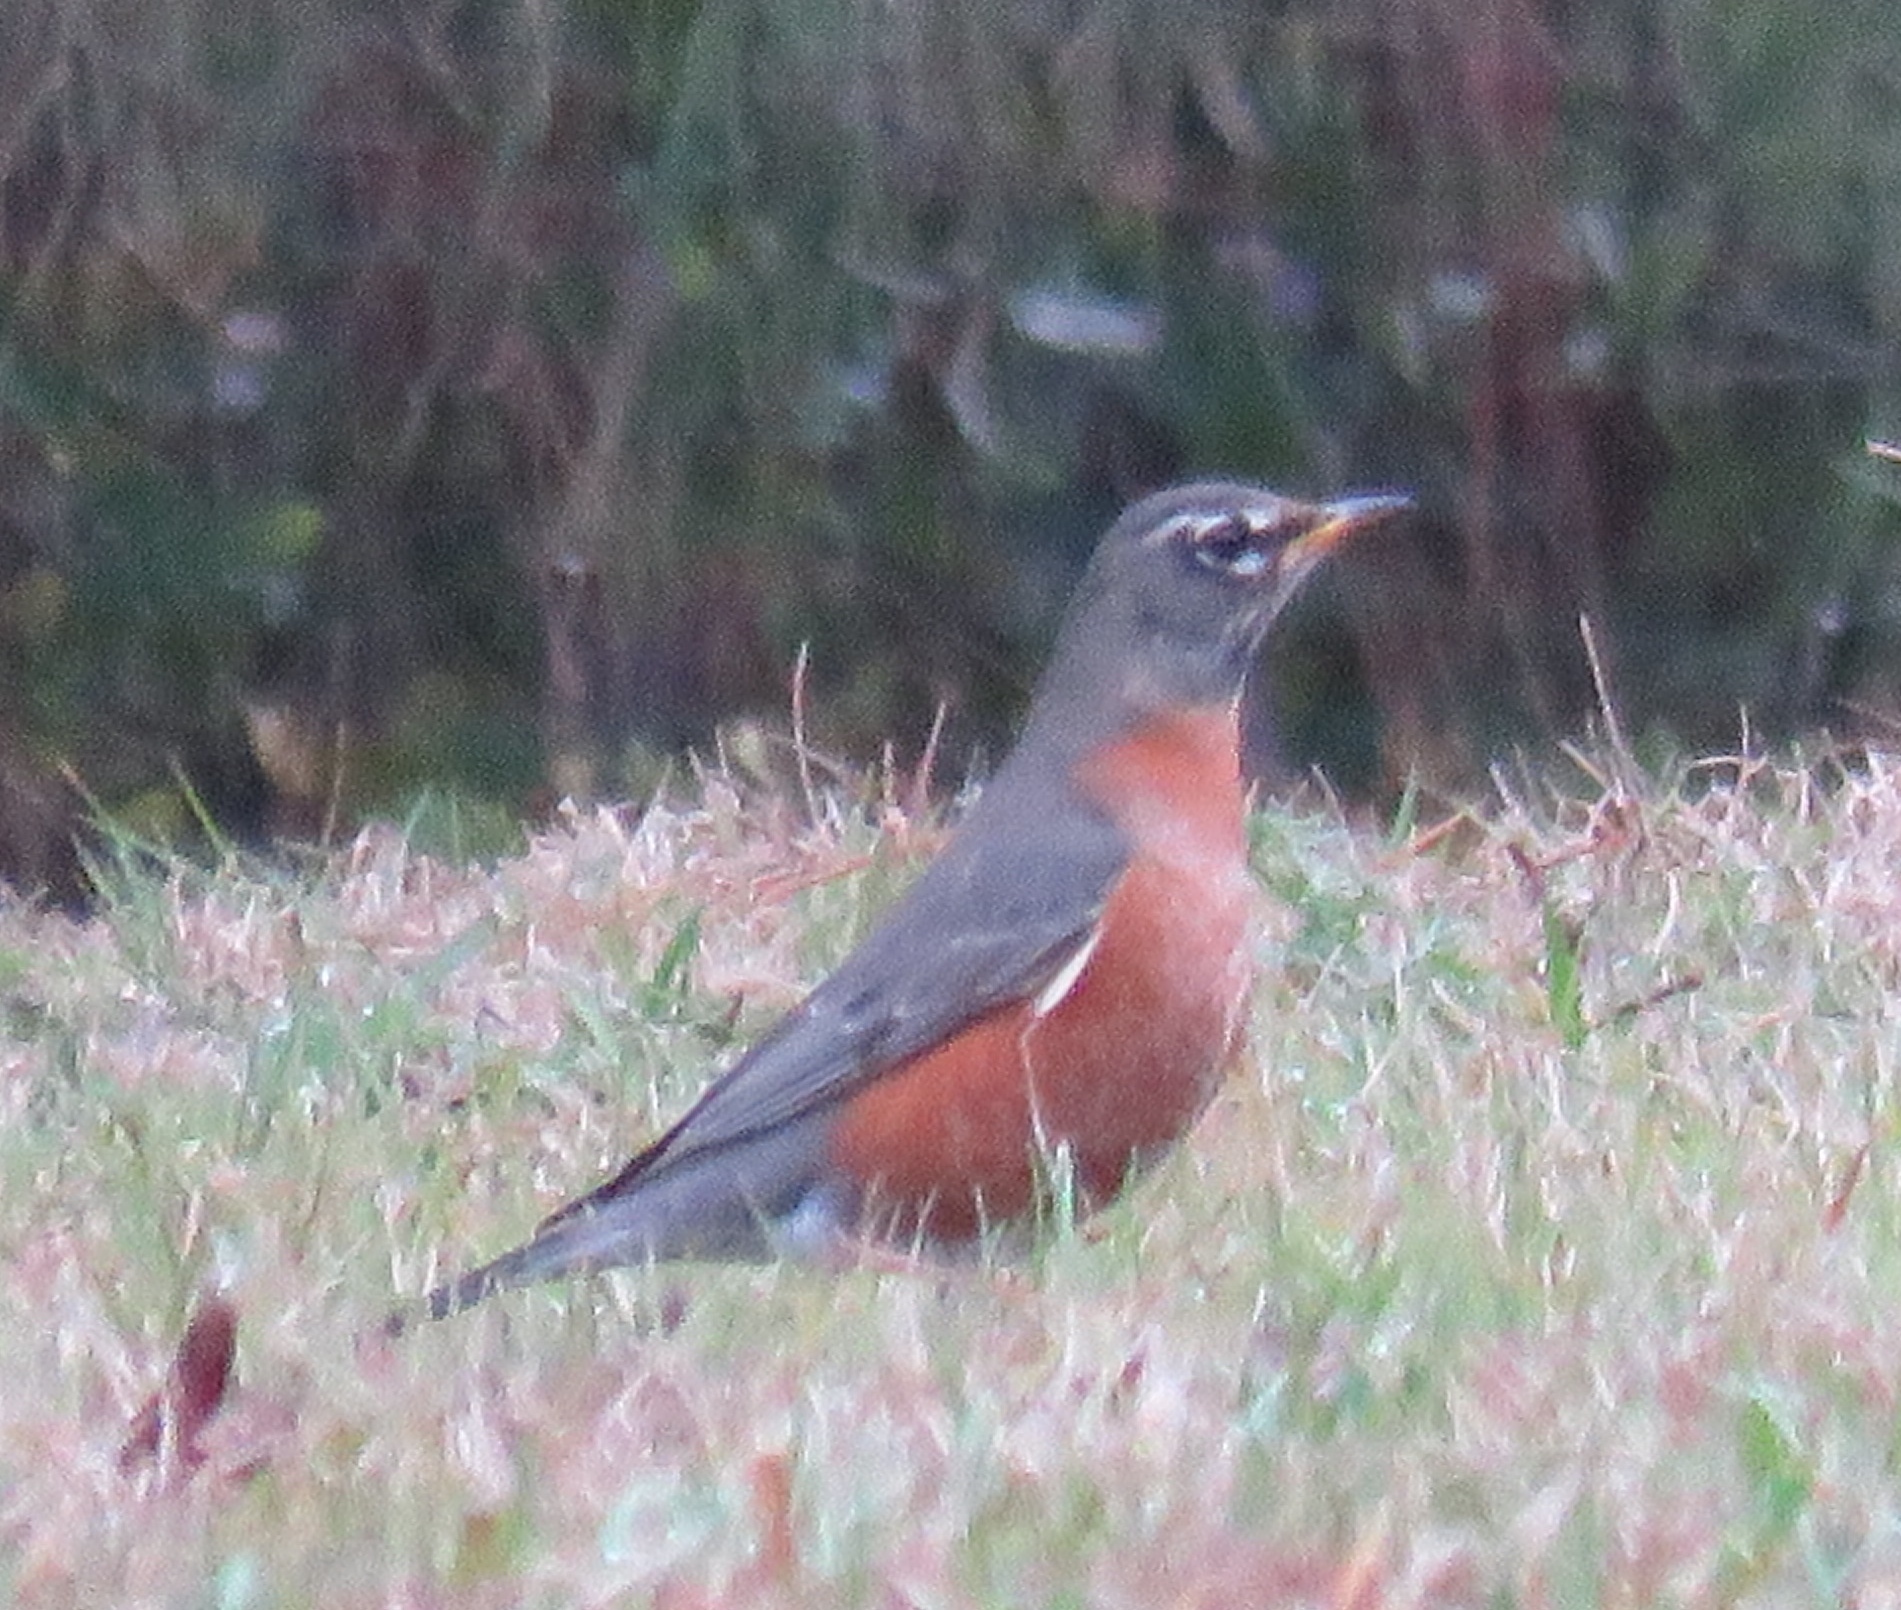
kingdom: Animalia
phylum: Chordata
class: Aves
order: Passeriformes
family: Turdidae
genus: Turdus
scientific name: Turdus migratorius
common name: American robin
